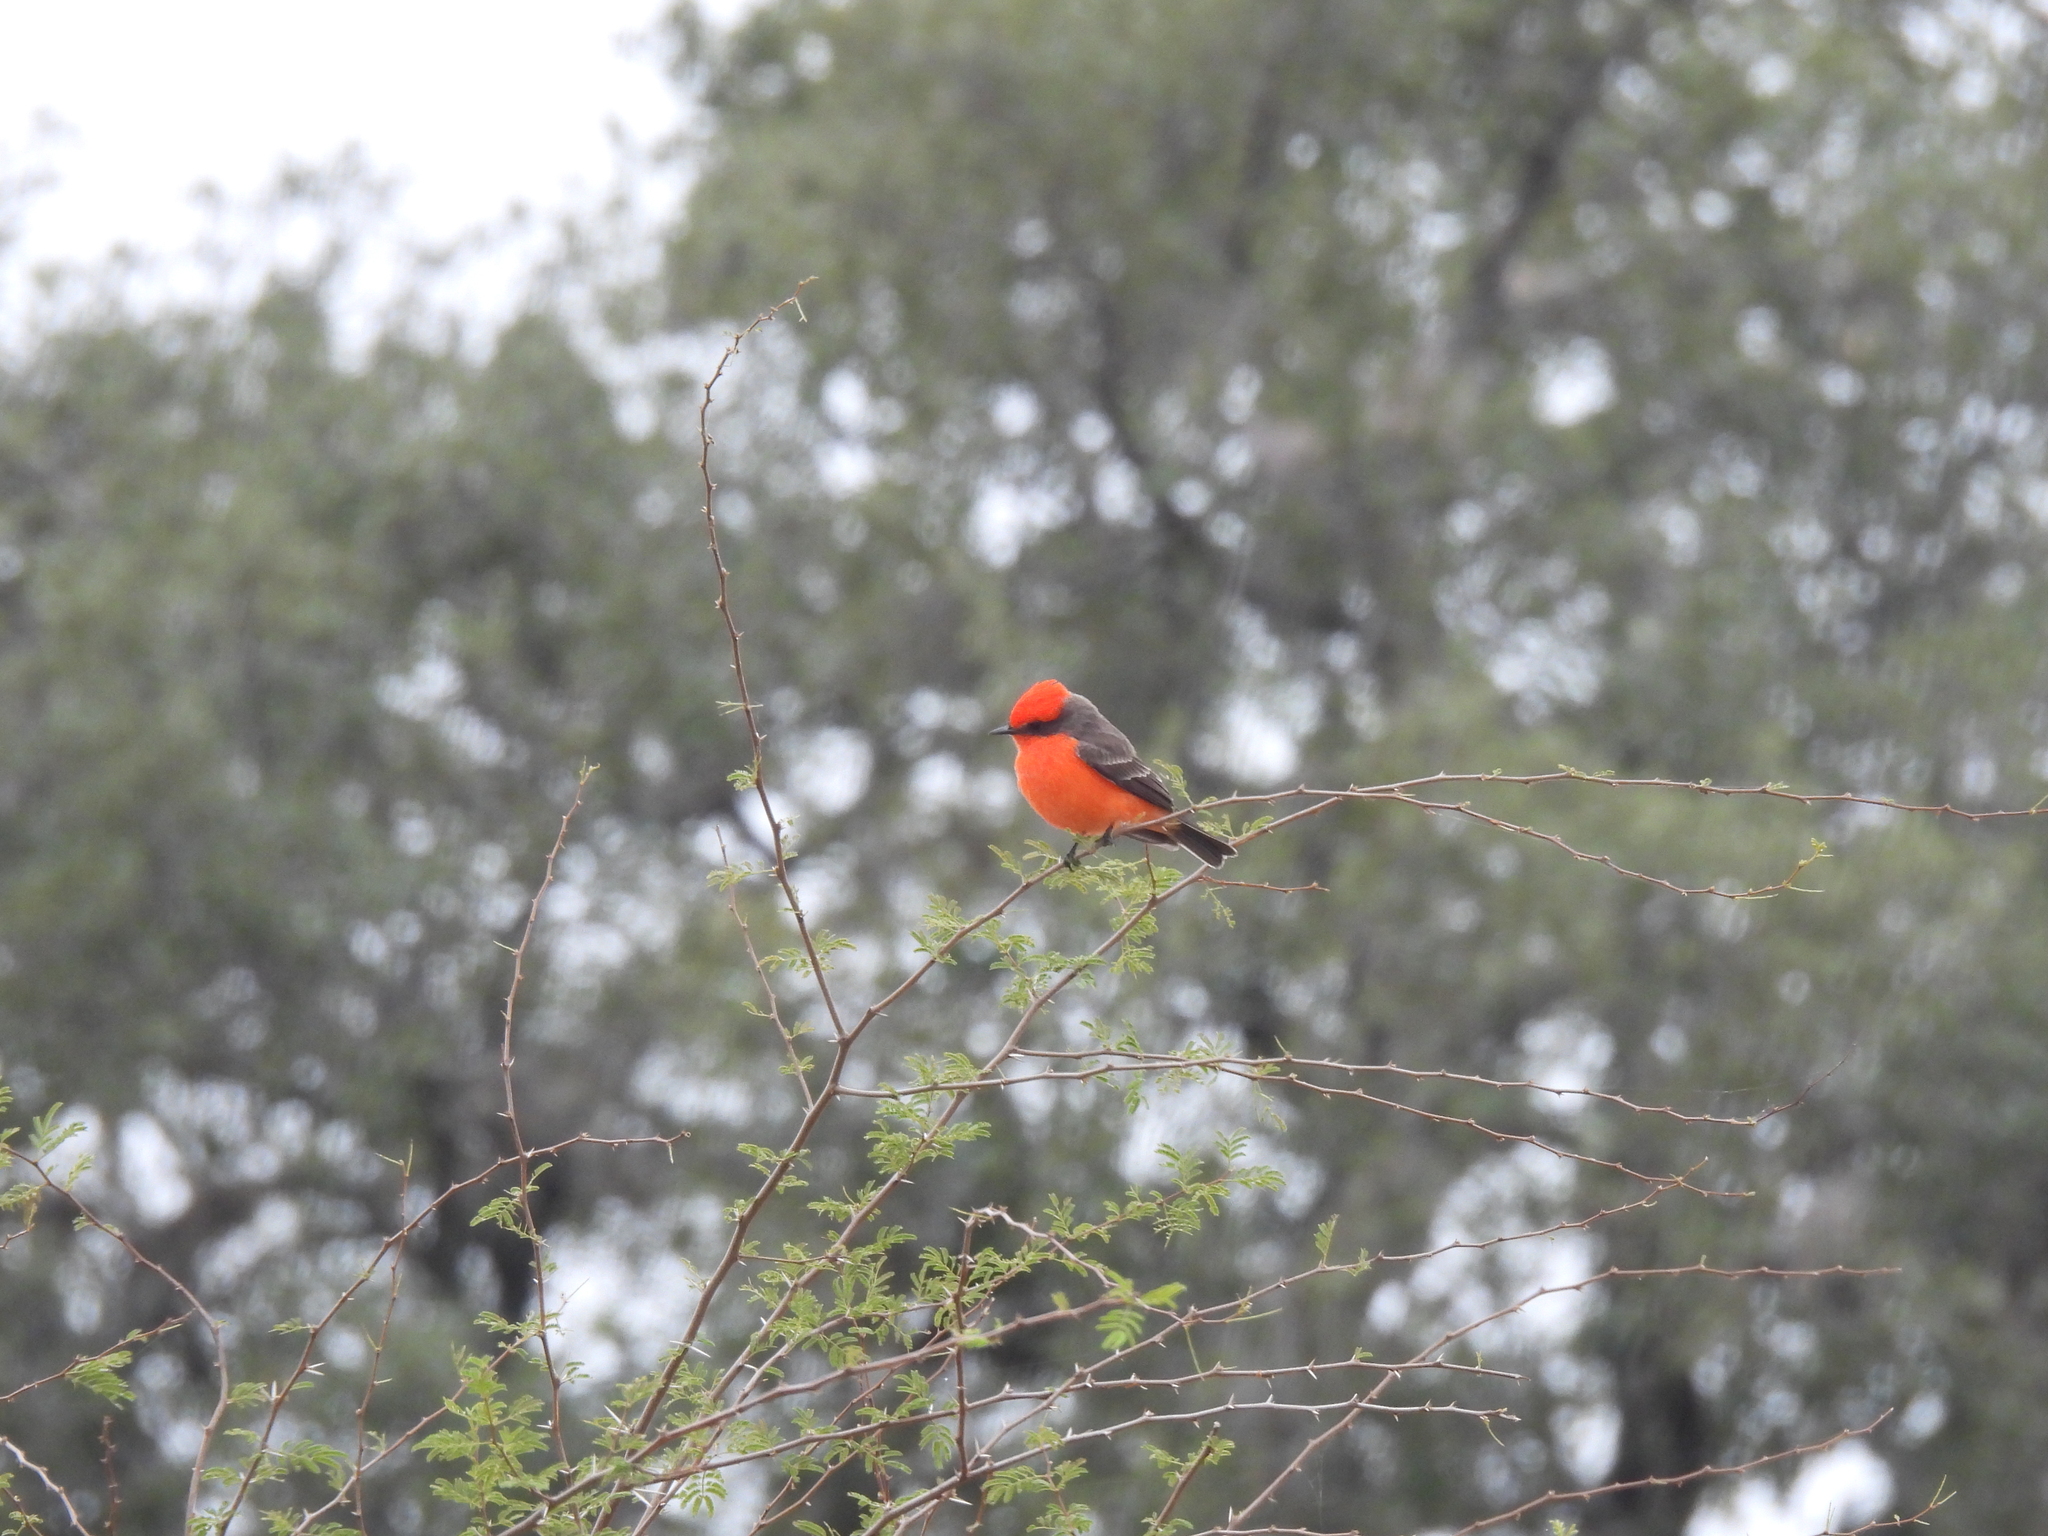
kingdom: Animalia
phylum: Chordata
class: Aves
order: Passeriformes
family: Tyrannidae
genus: Pyrocephalus
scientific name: Pyrocephalus rubinus
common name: Vermilion flycatcher
